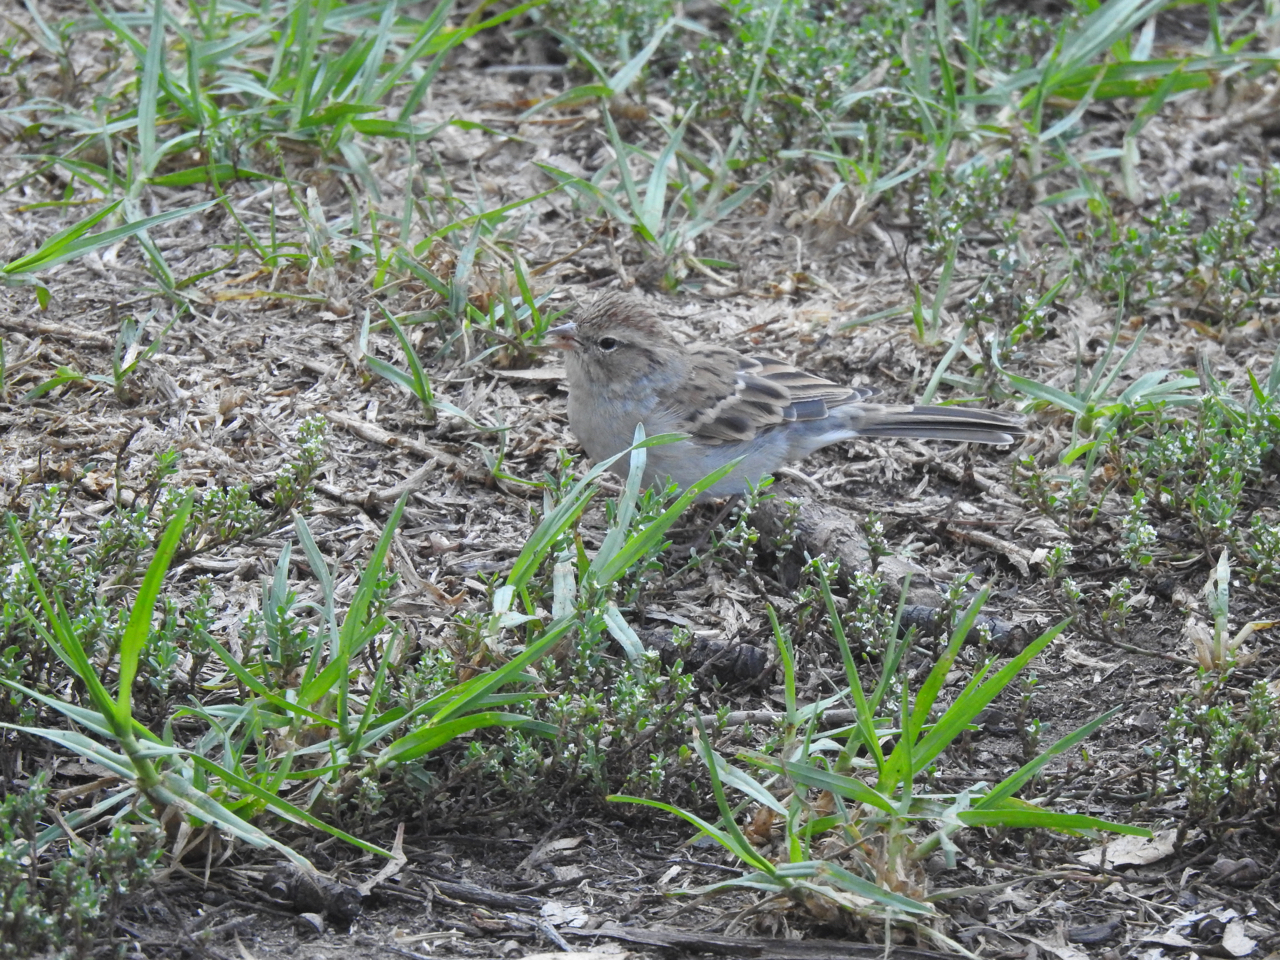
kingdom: Animalia
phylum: Chordata
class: Aves
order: Passeriformes
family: Passerellidae
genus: Spizella
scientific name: Spizella passerina
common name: Chipping sparrow
